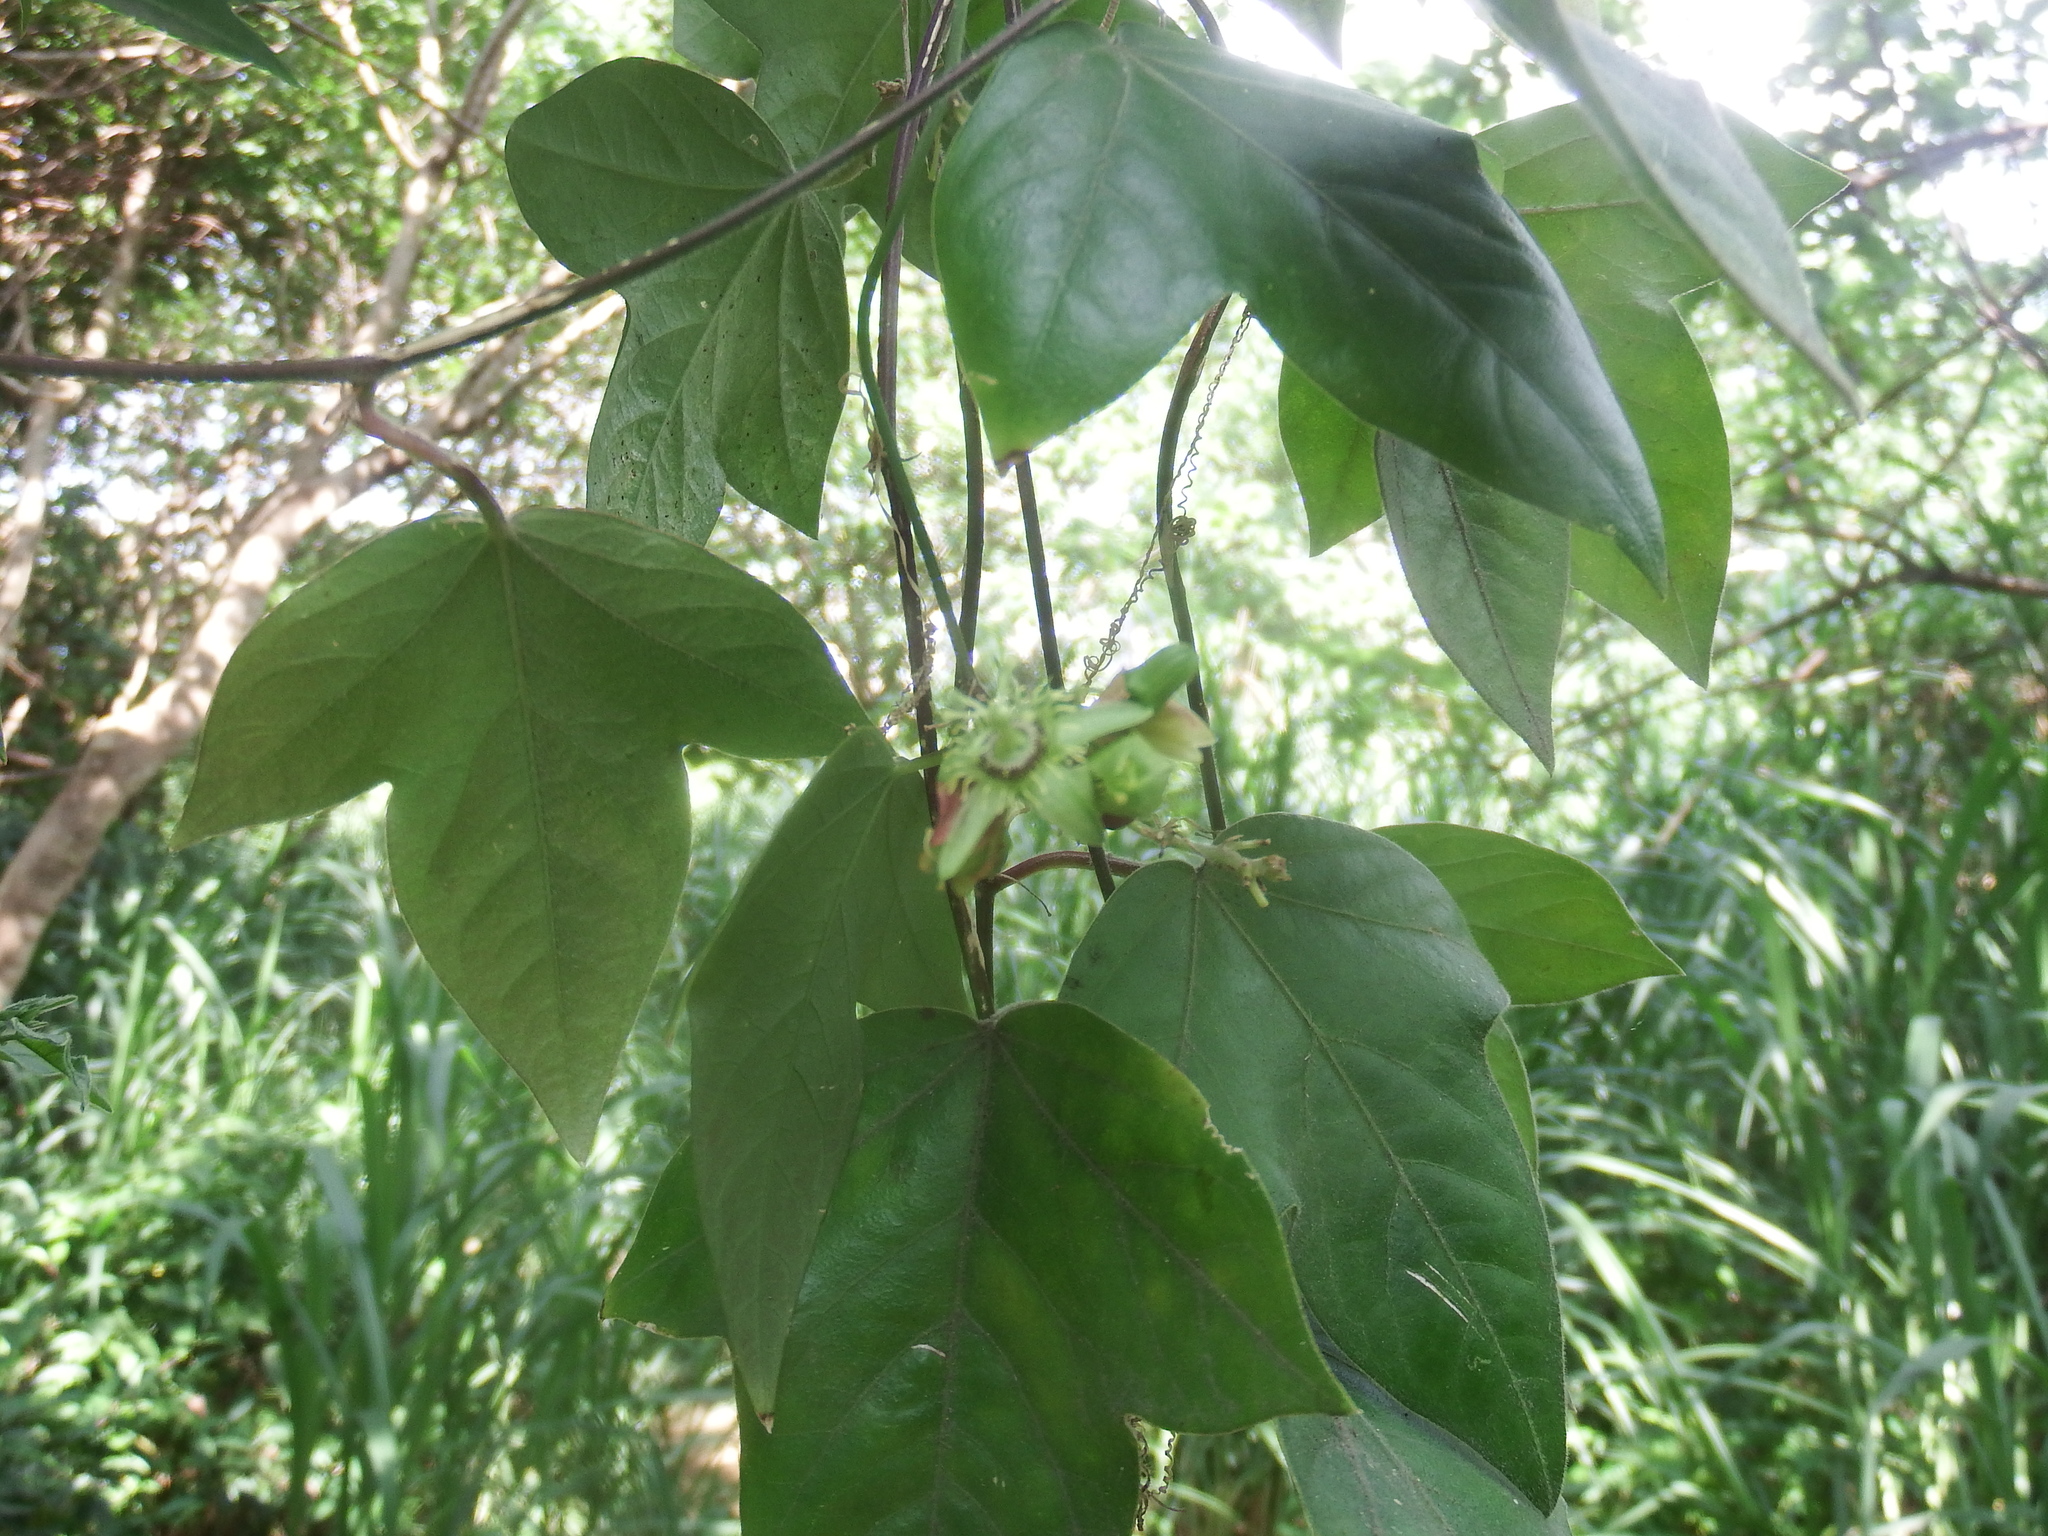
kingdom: Plantae
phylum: Tracheophyta
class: Magnoliopsida
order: Malpighiales
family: Passifloraceae
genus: Passiflora
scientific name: Passiflora suberosa
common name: Wild passionfruit
